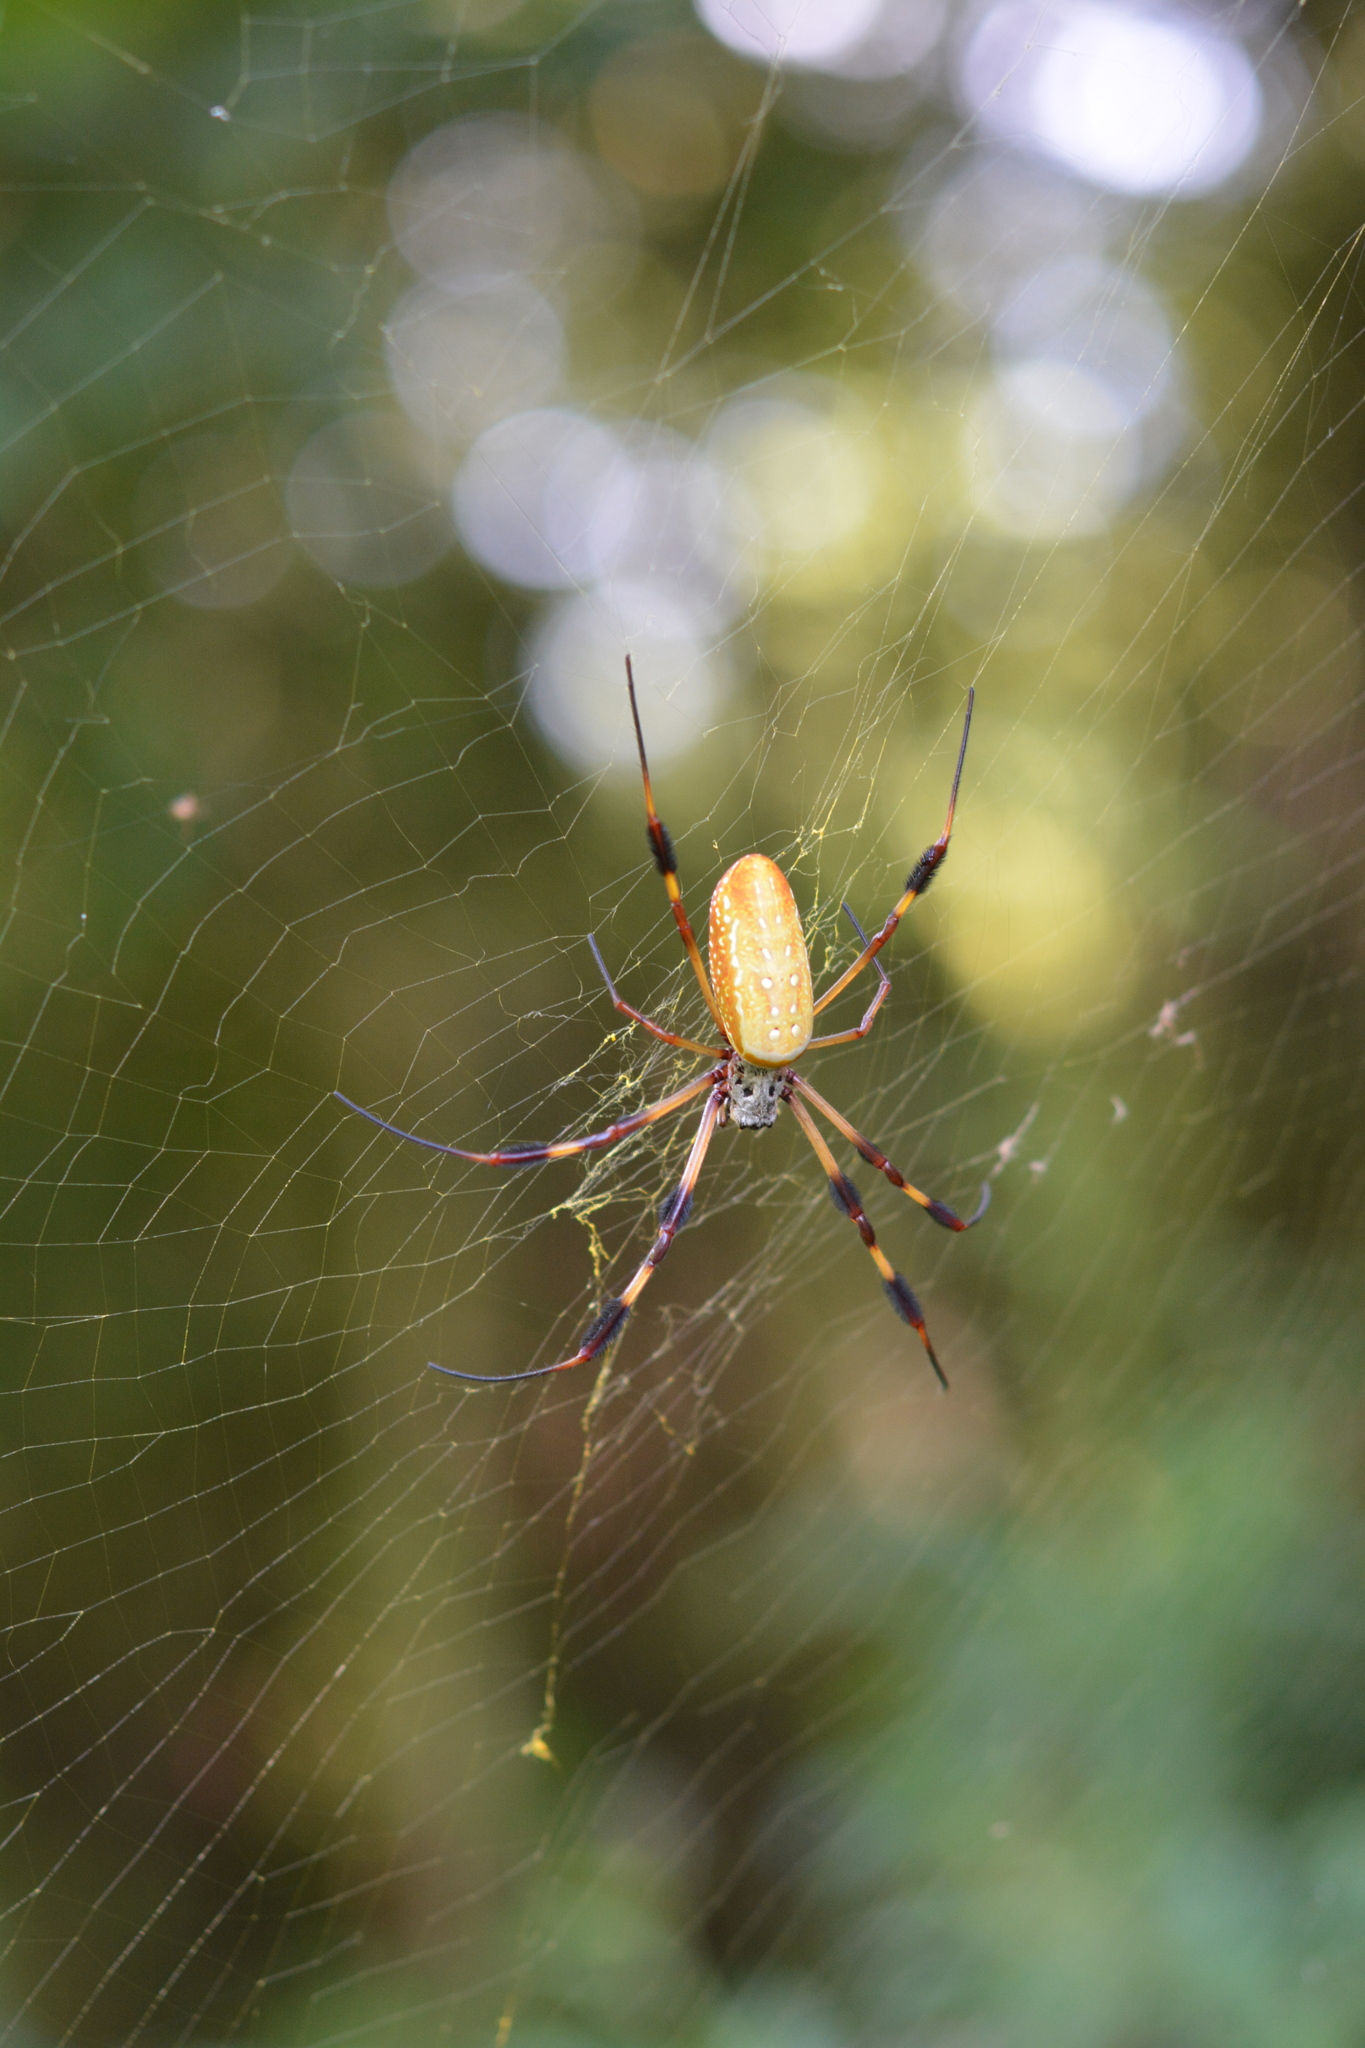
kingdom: Animalia
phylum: Arthropoda
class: Arachnida
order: Araneae
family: Araneidae
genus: Trichonephila
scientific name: Trichonephila clavipes
